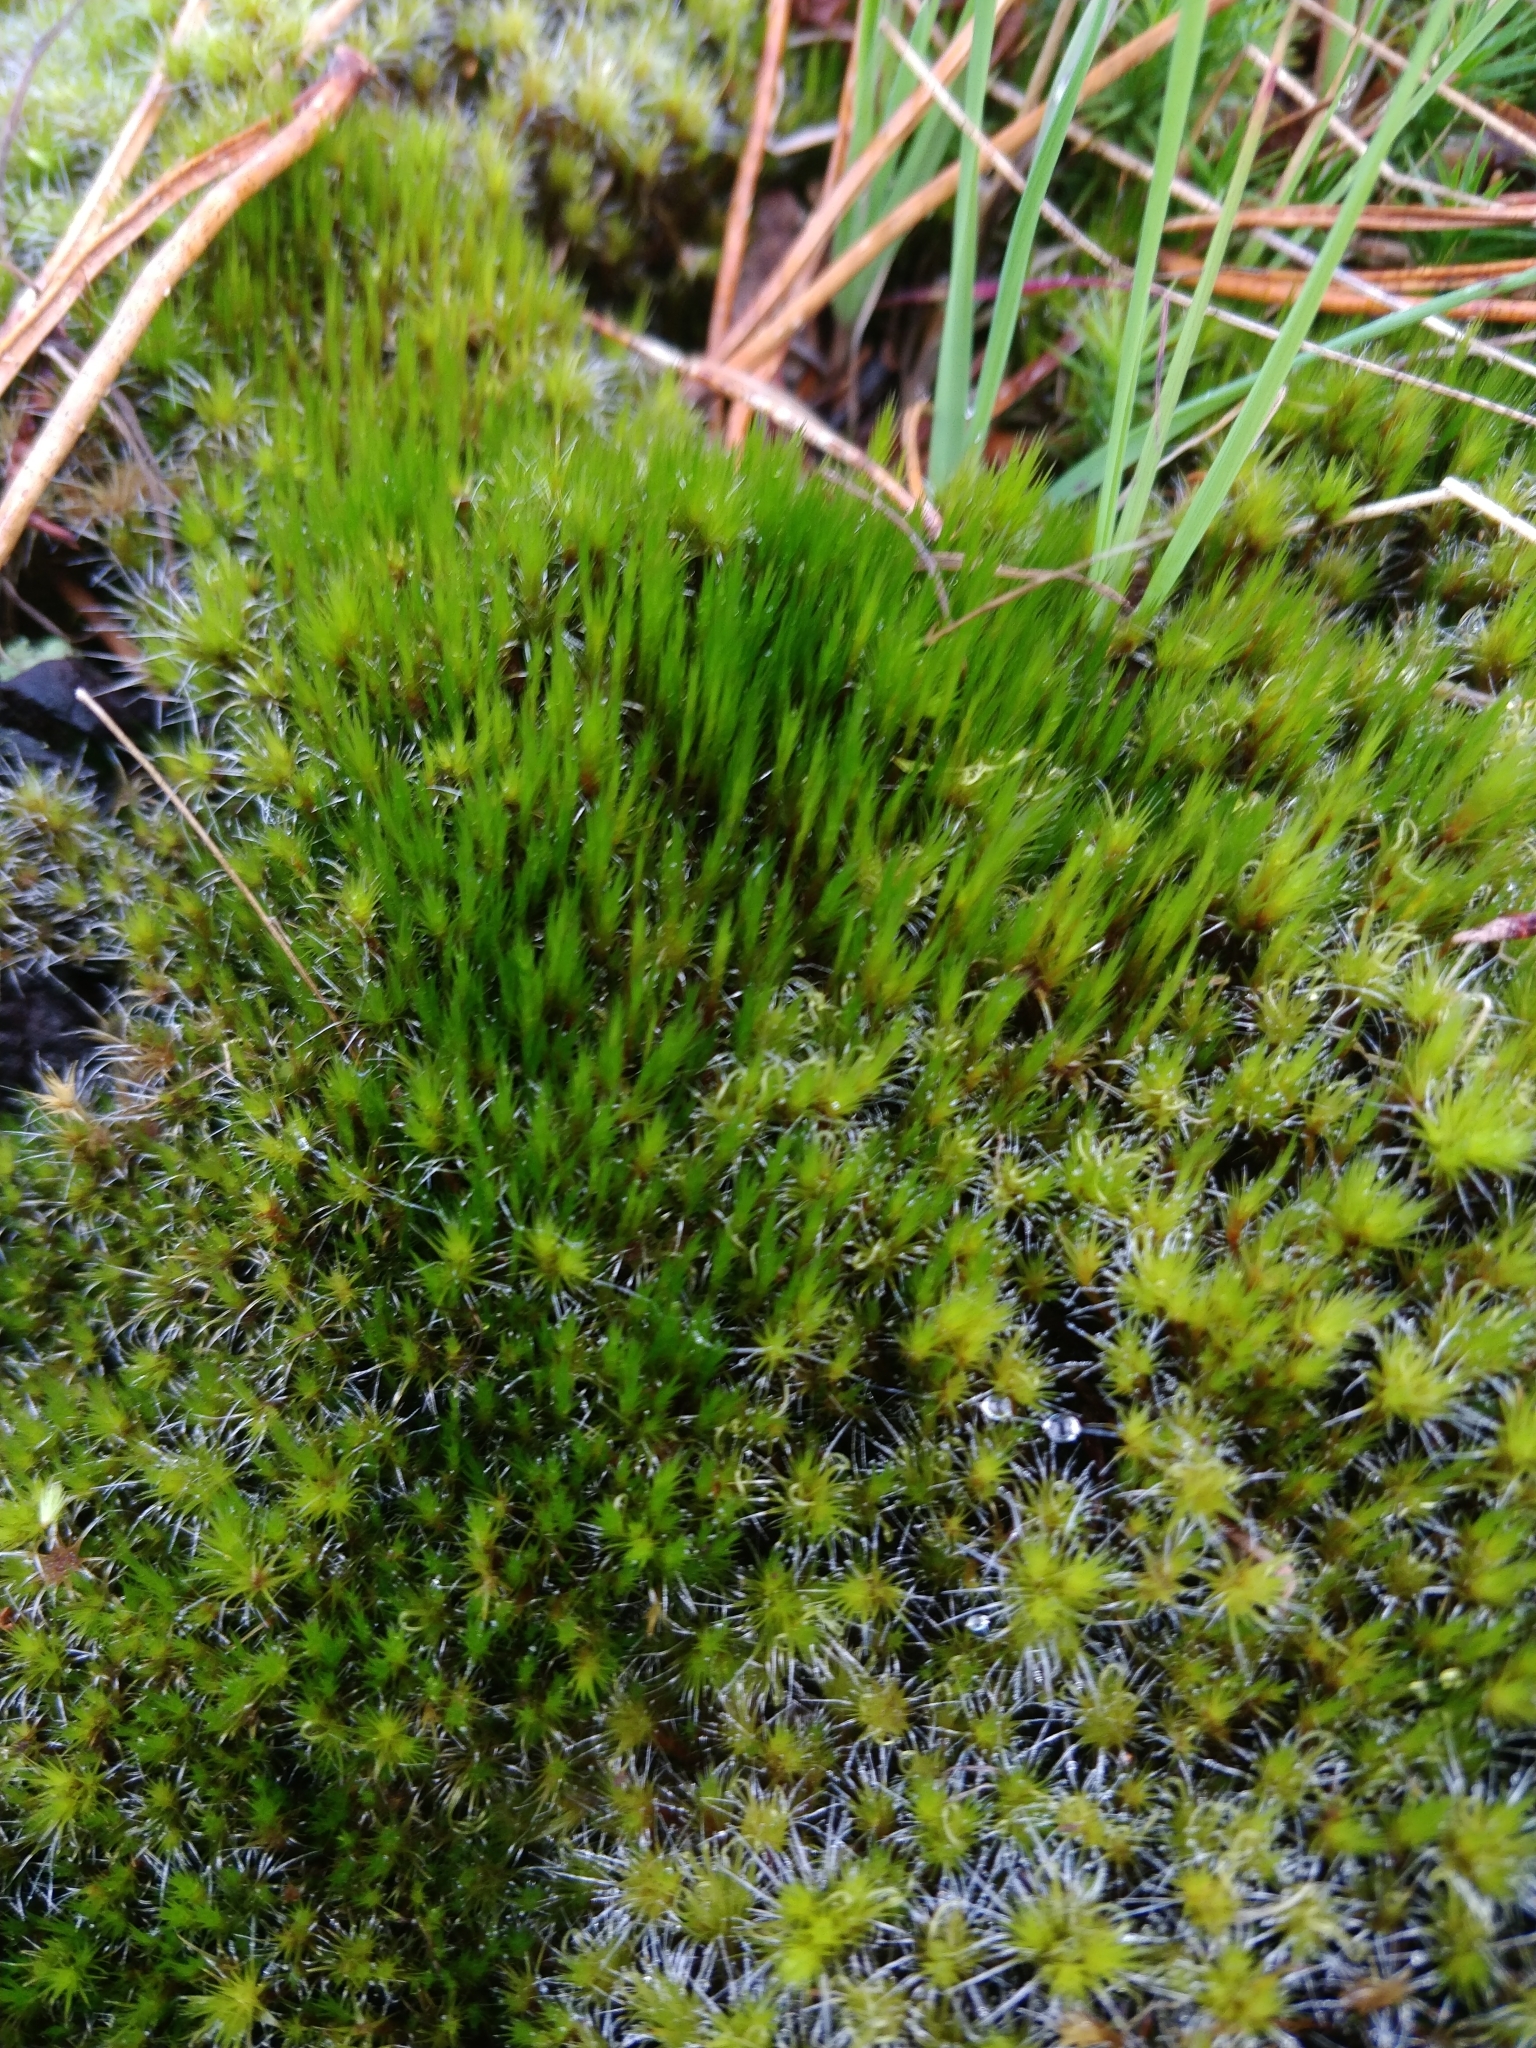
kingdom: Plantae
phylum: Bryophyta
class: Bryopsida
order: Dicranales
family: Leucobryaceae
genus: Campylopus
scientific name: Campylopus introflexus
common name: Heath star moss
